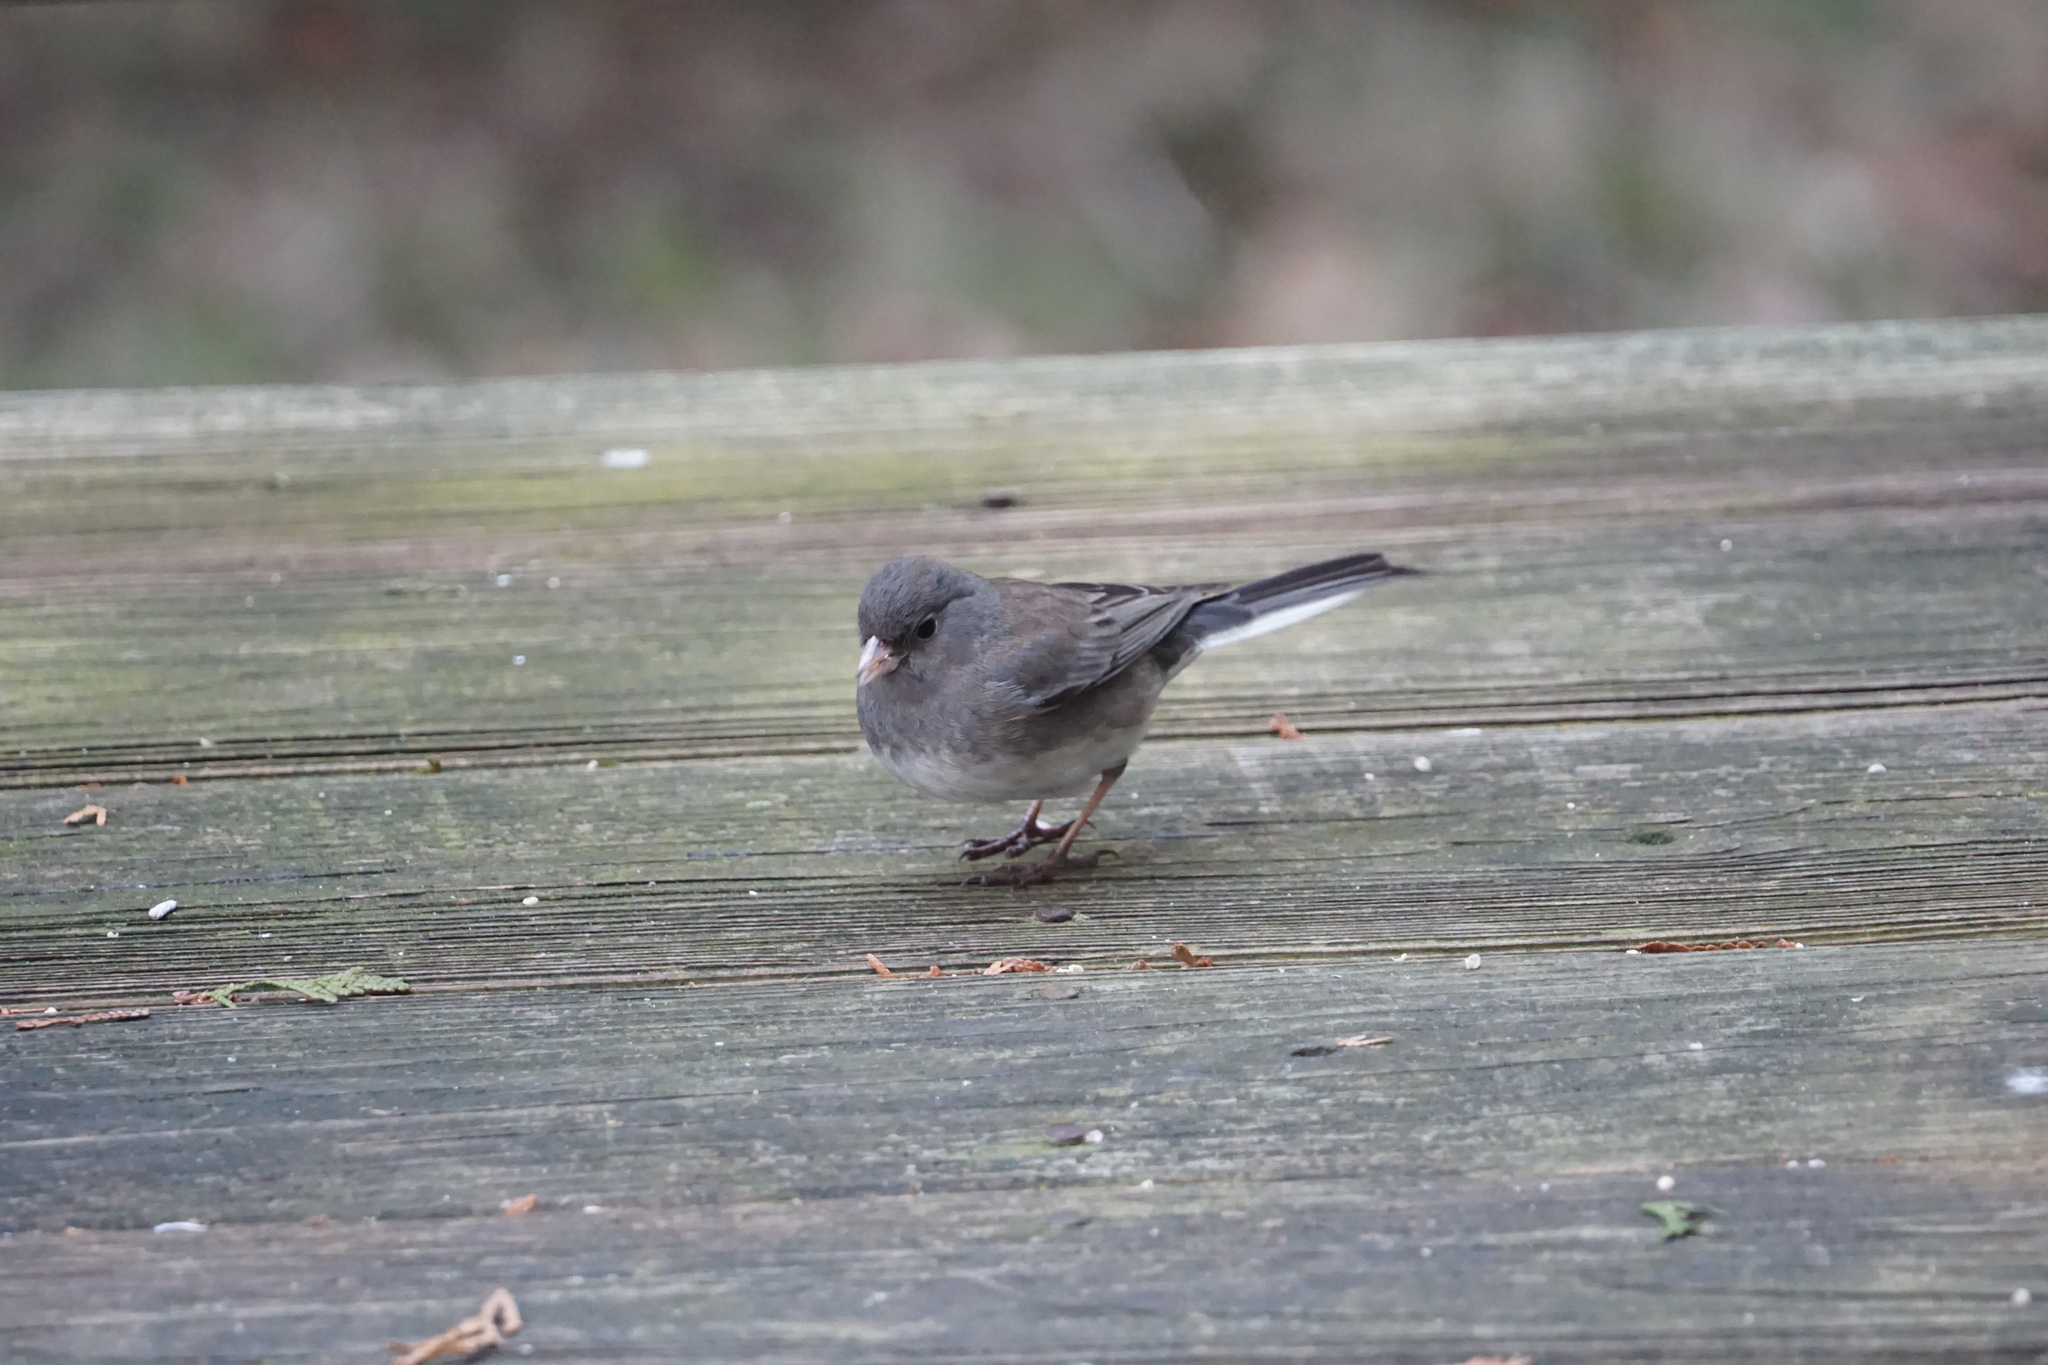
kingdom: Animalia
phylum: Chordata
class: Aves
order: Passeriformes
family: Passerellidae
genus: Junco
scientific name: Junco hyemalis
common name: Dark-eyed junco
